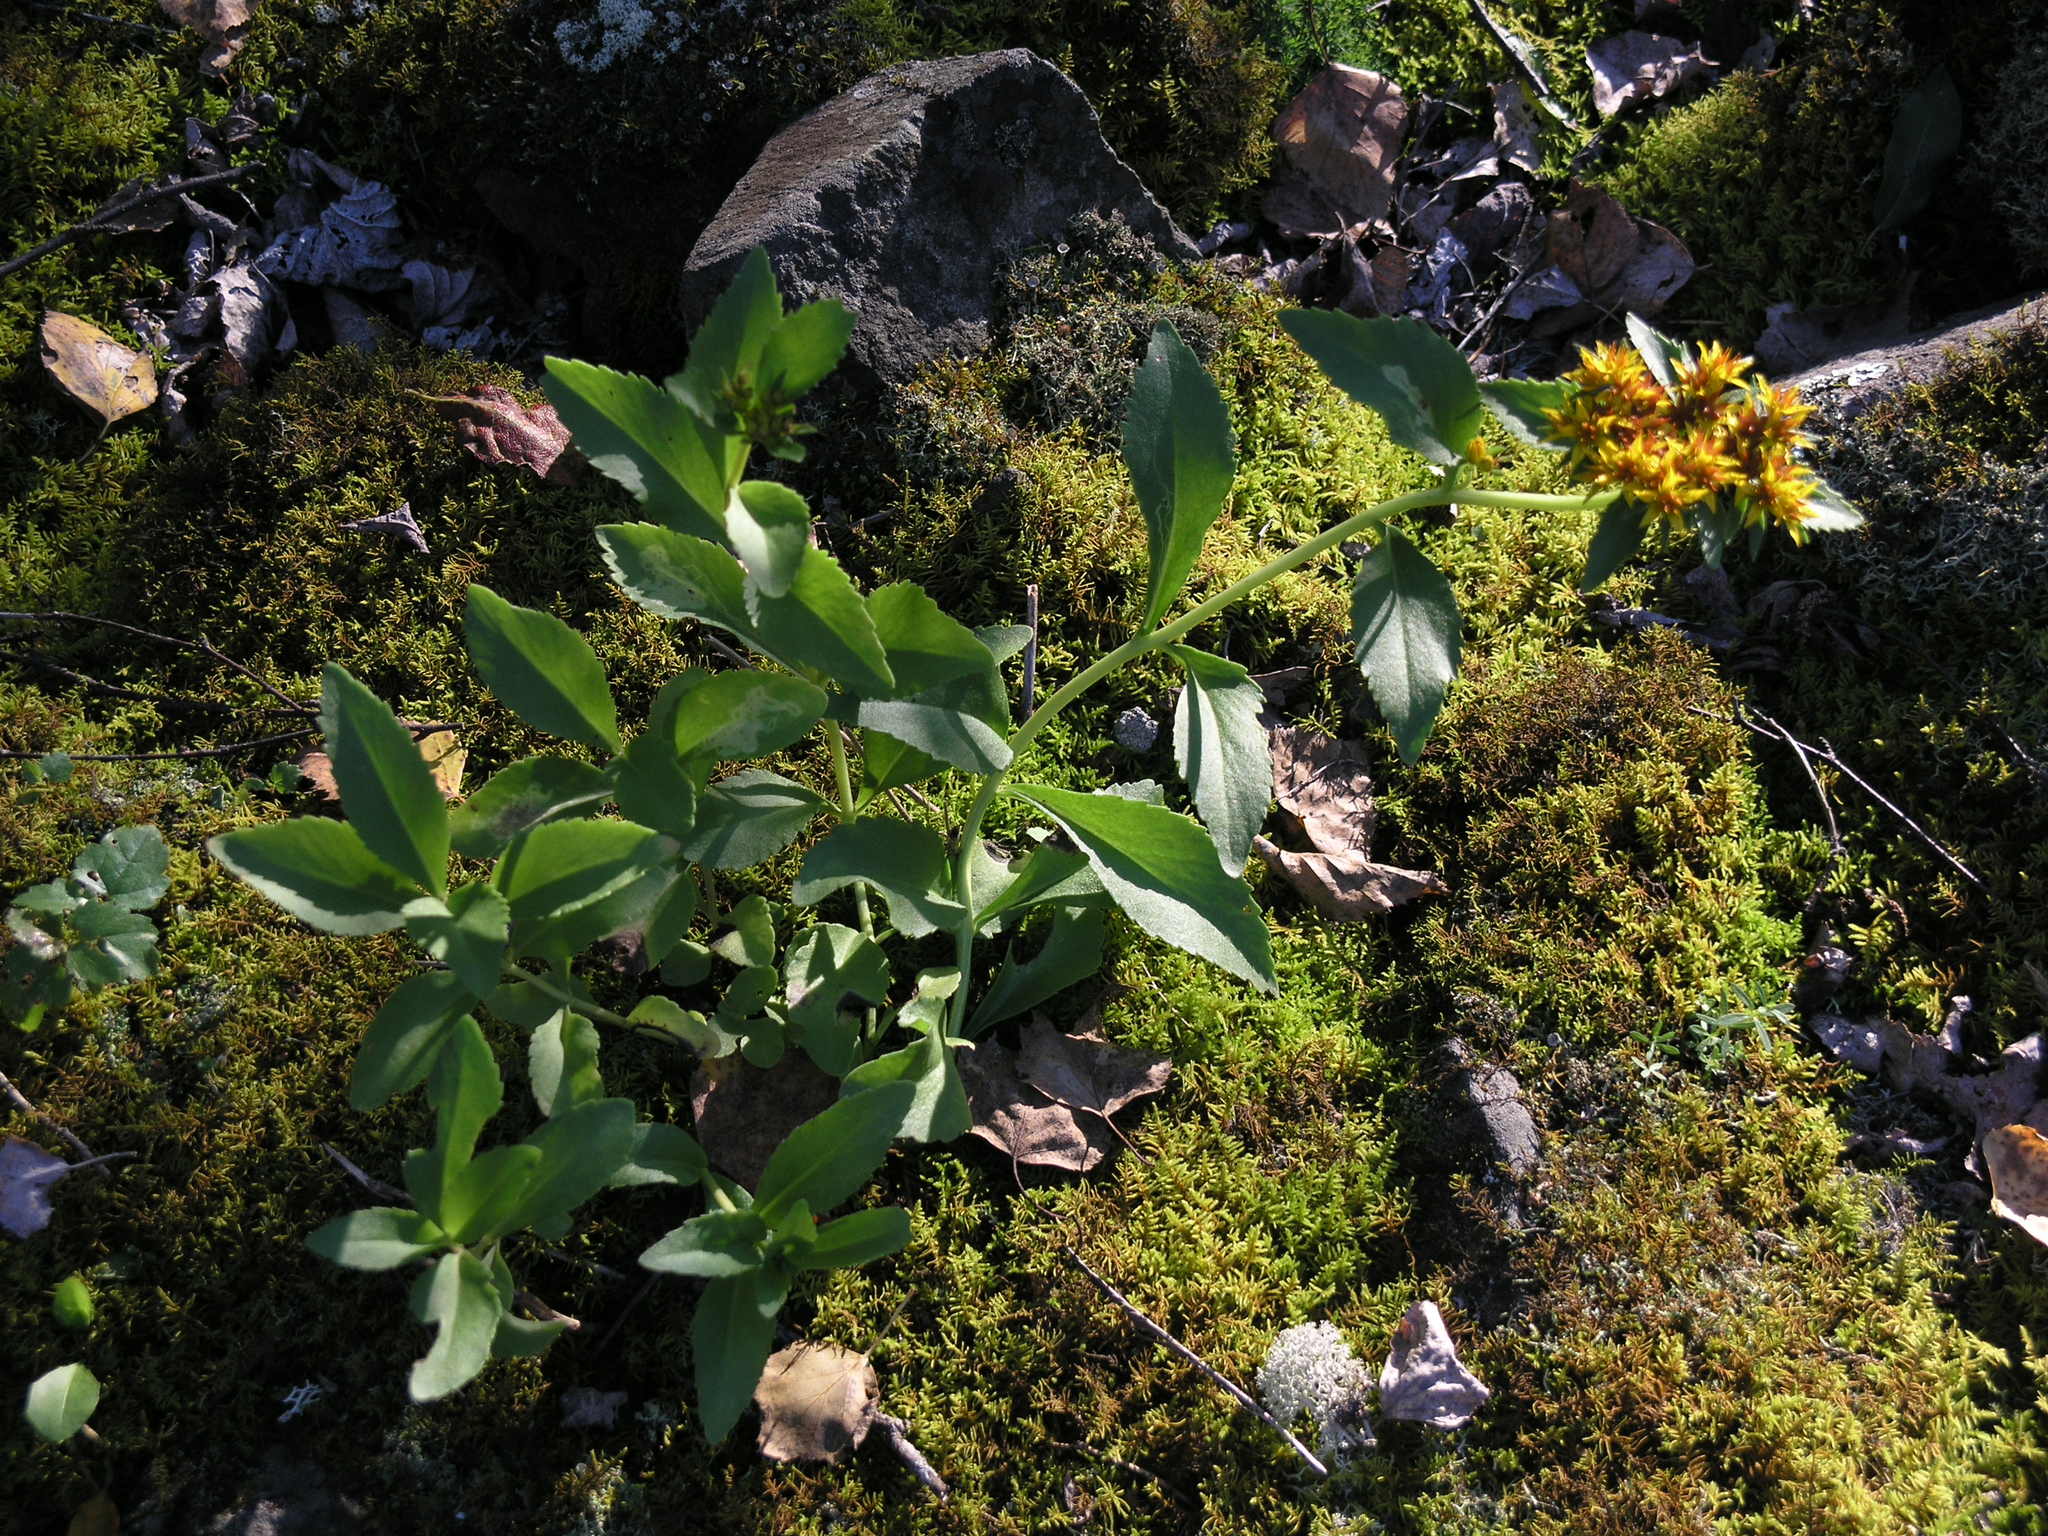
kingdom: Plantae
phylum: Tracheophyta
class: Magnoliopsida
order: Saxifragales
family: Crassulaceae
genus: Phedimus
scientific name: Phedimus aizoon
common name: Orpin aizoon
